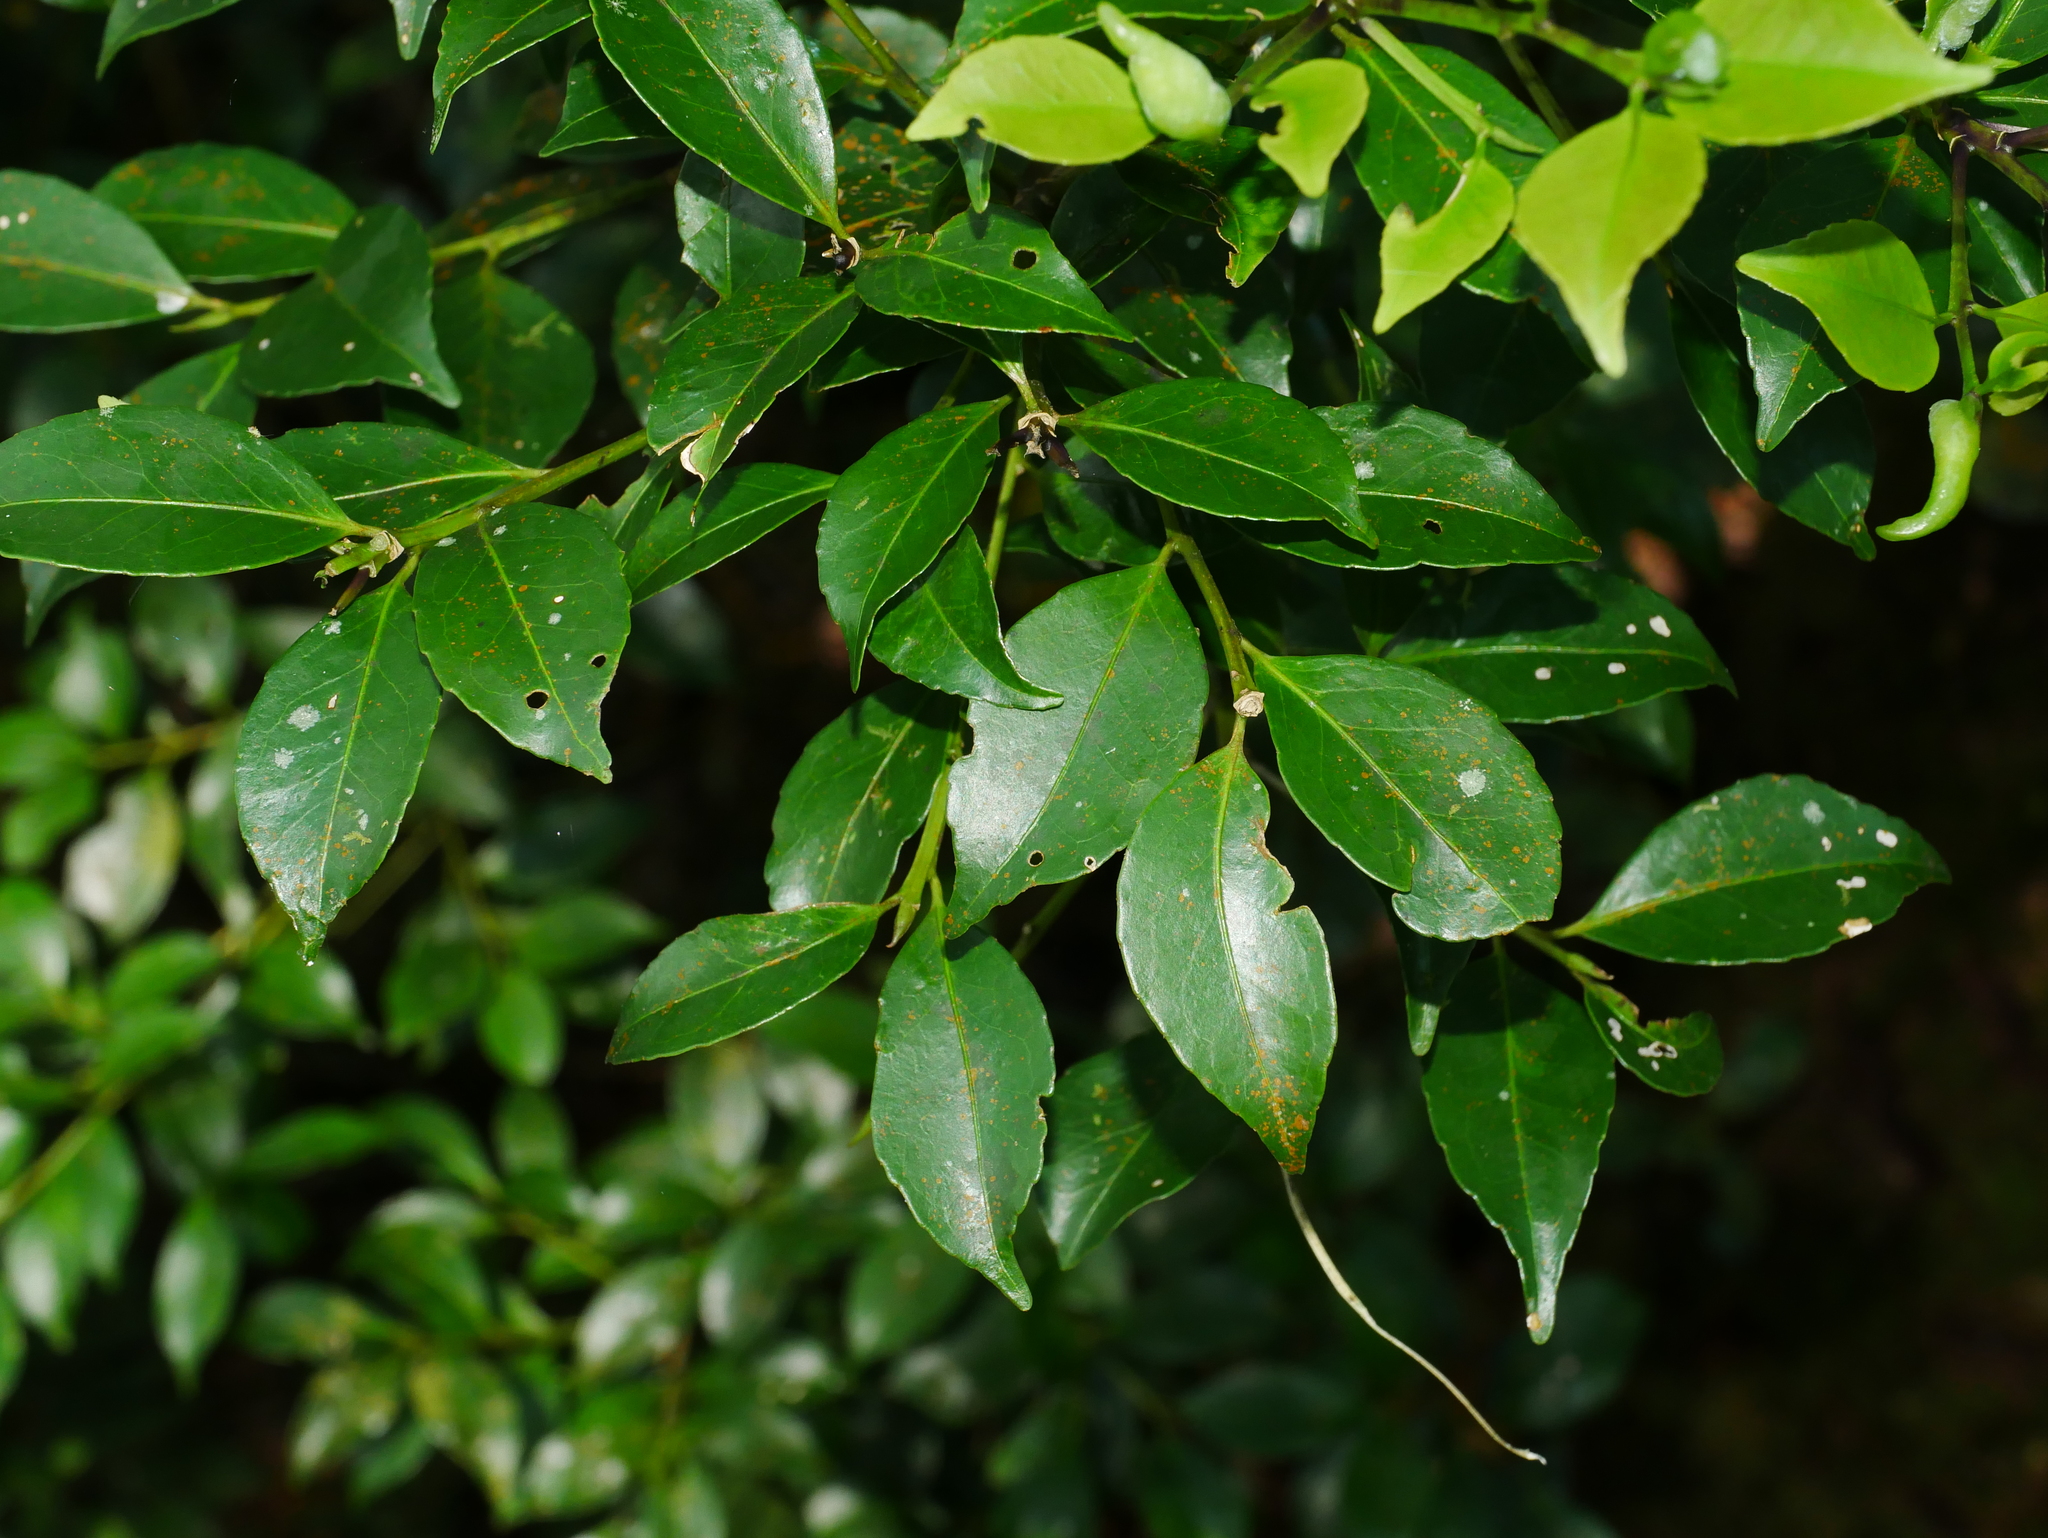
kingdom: Plantae
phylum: Tracheophyta
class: Magnoliopsida
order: Ericales
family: Symplocaceae
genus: Symplocos
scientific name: Symplocos migoi
